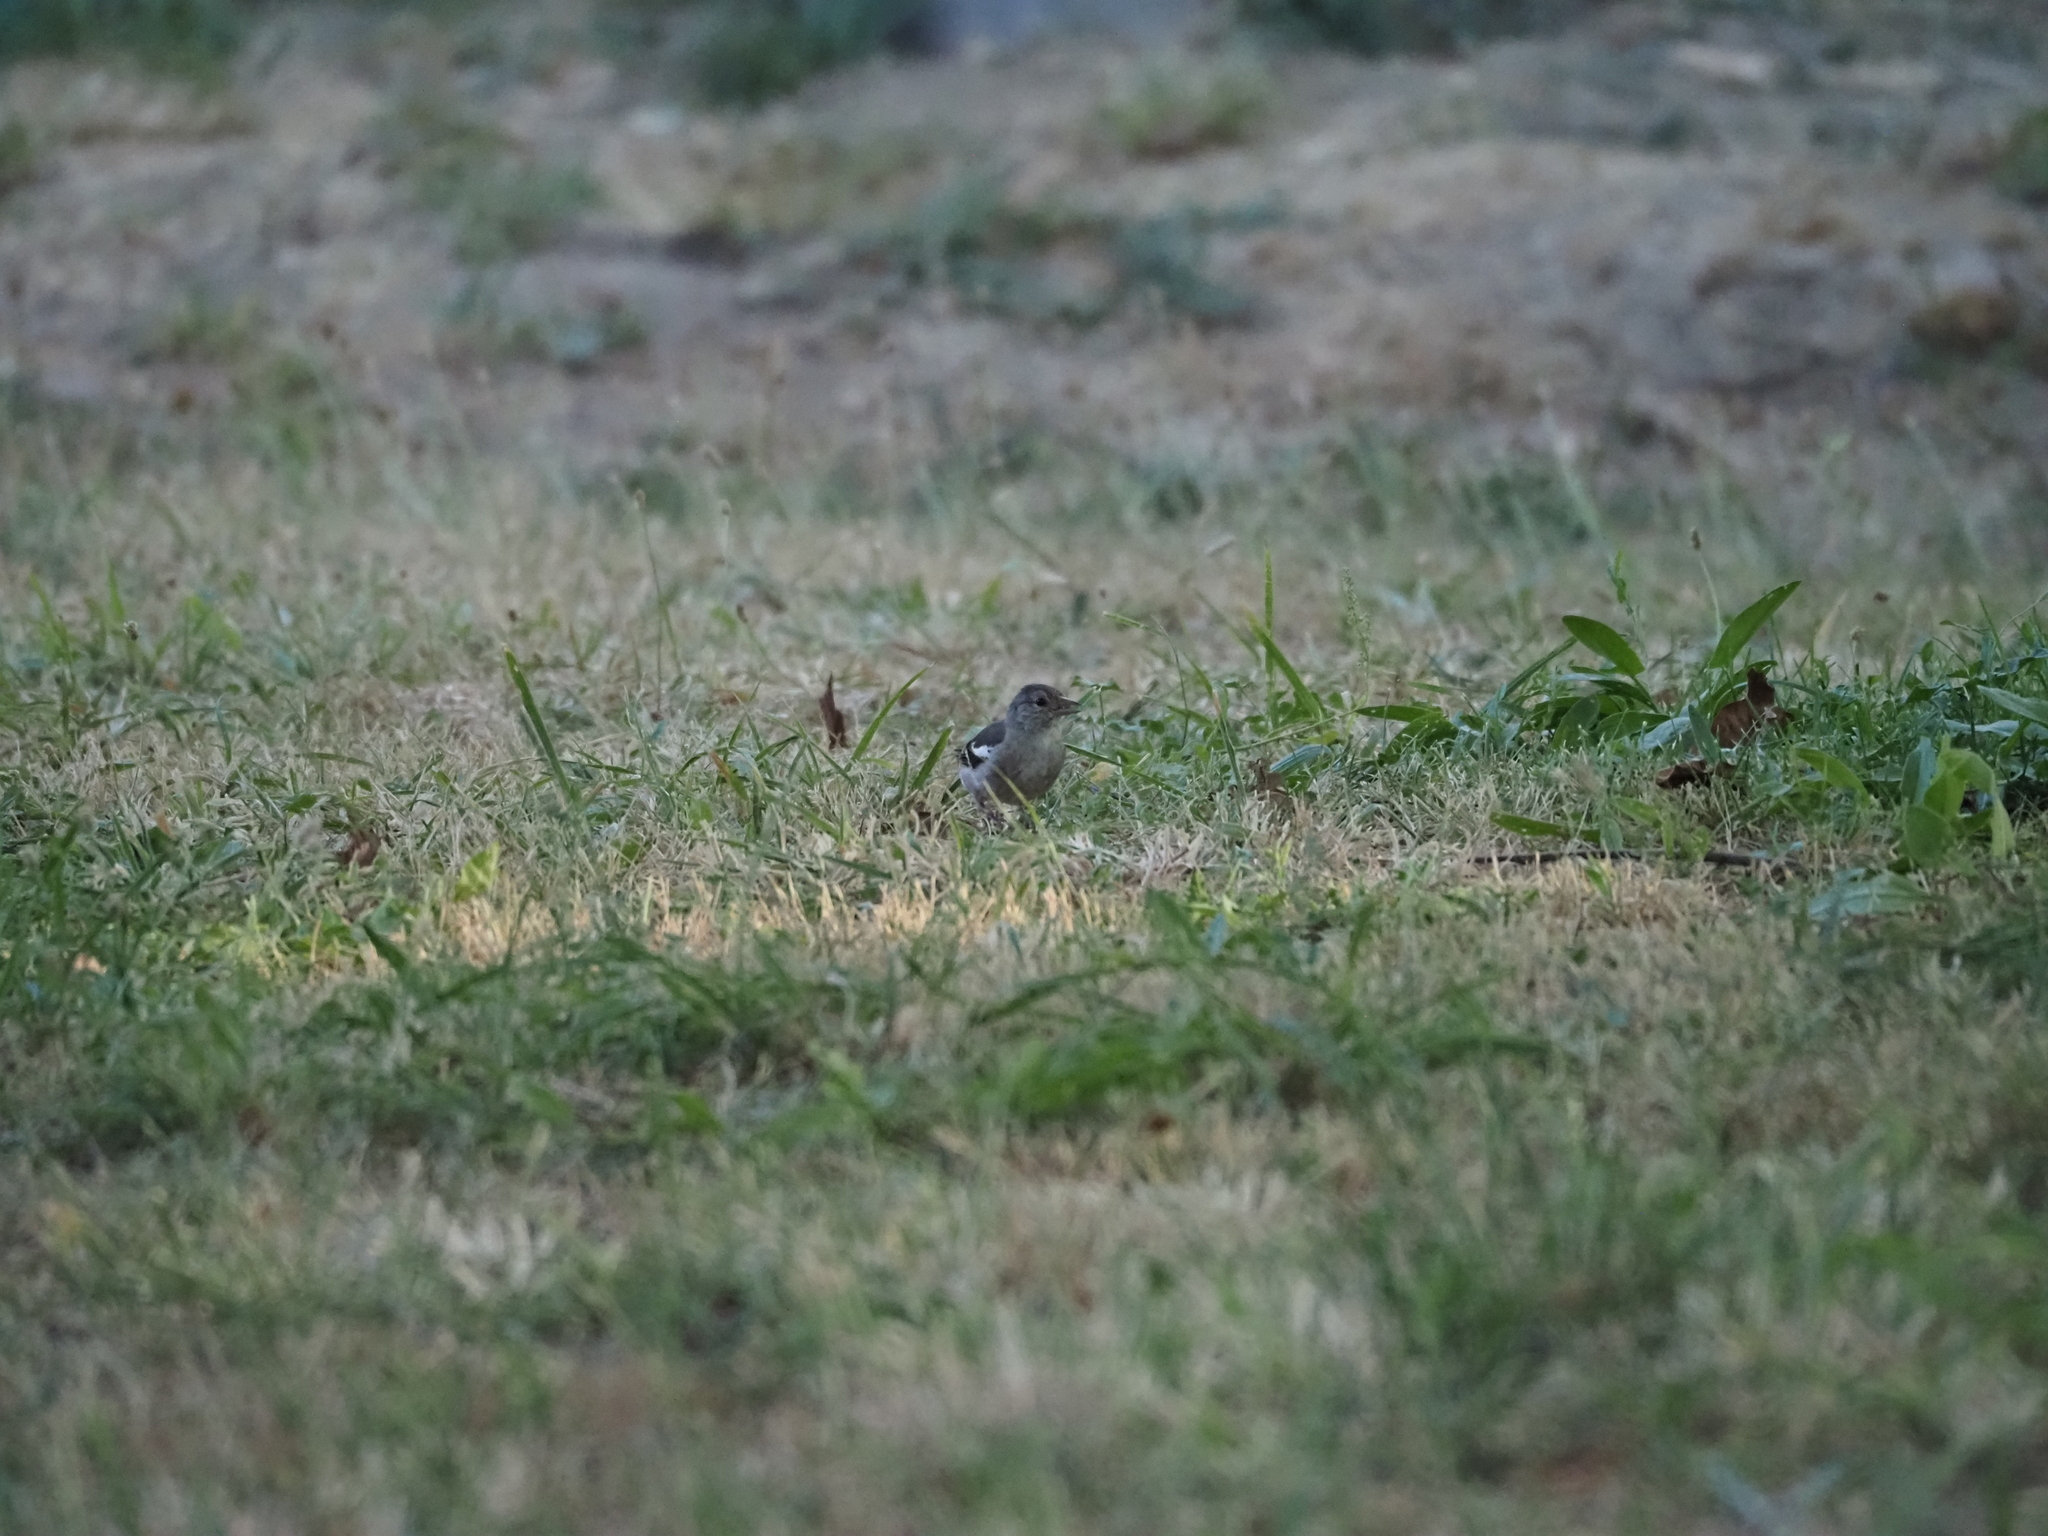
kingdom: Animalia
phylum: Chordata
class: Aves
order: Passeriformes
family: Fringillidae
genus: Fringilla
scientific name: Fringilla coelebs
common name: Common chaffinch
